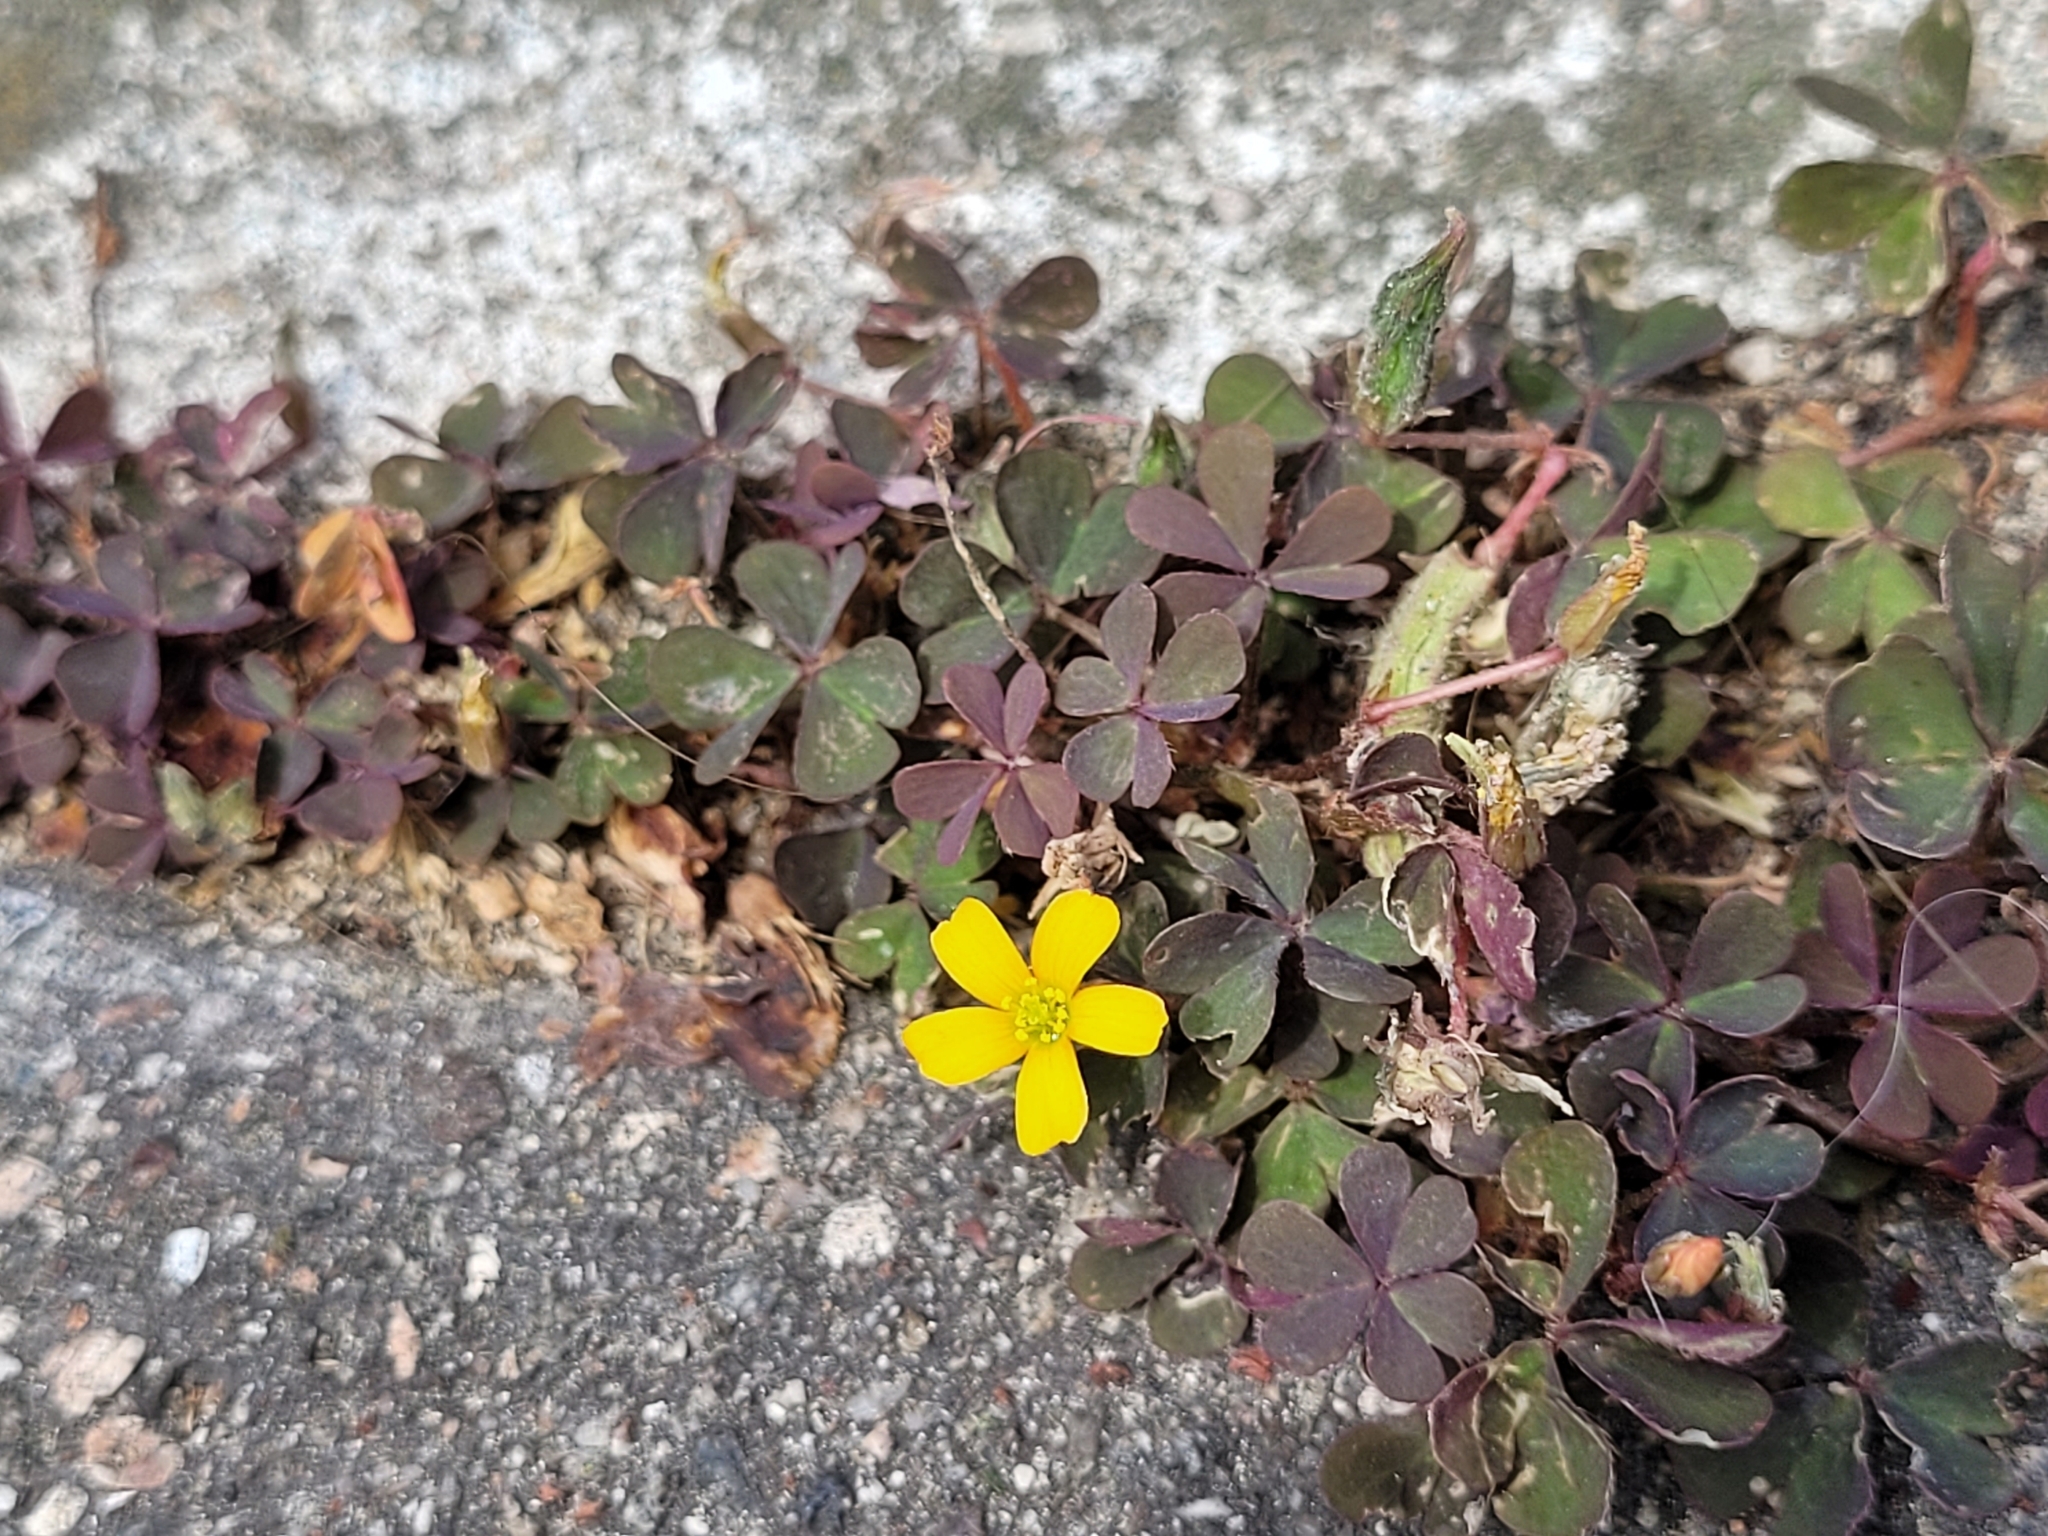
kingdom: Plantae
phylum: Tracheophyta
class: Magnoliopsida
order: Oxalidales
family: Oxalidaceae
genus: Oxalis
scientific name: Oxalis corniculata
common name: Procumbent yellow-sorrel
